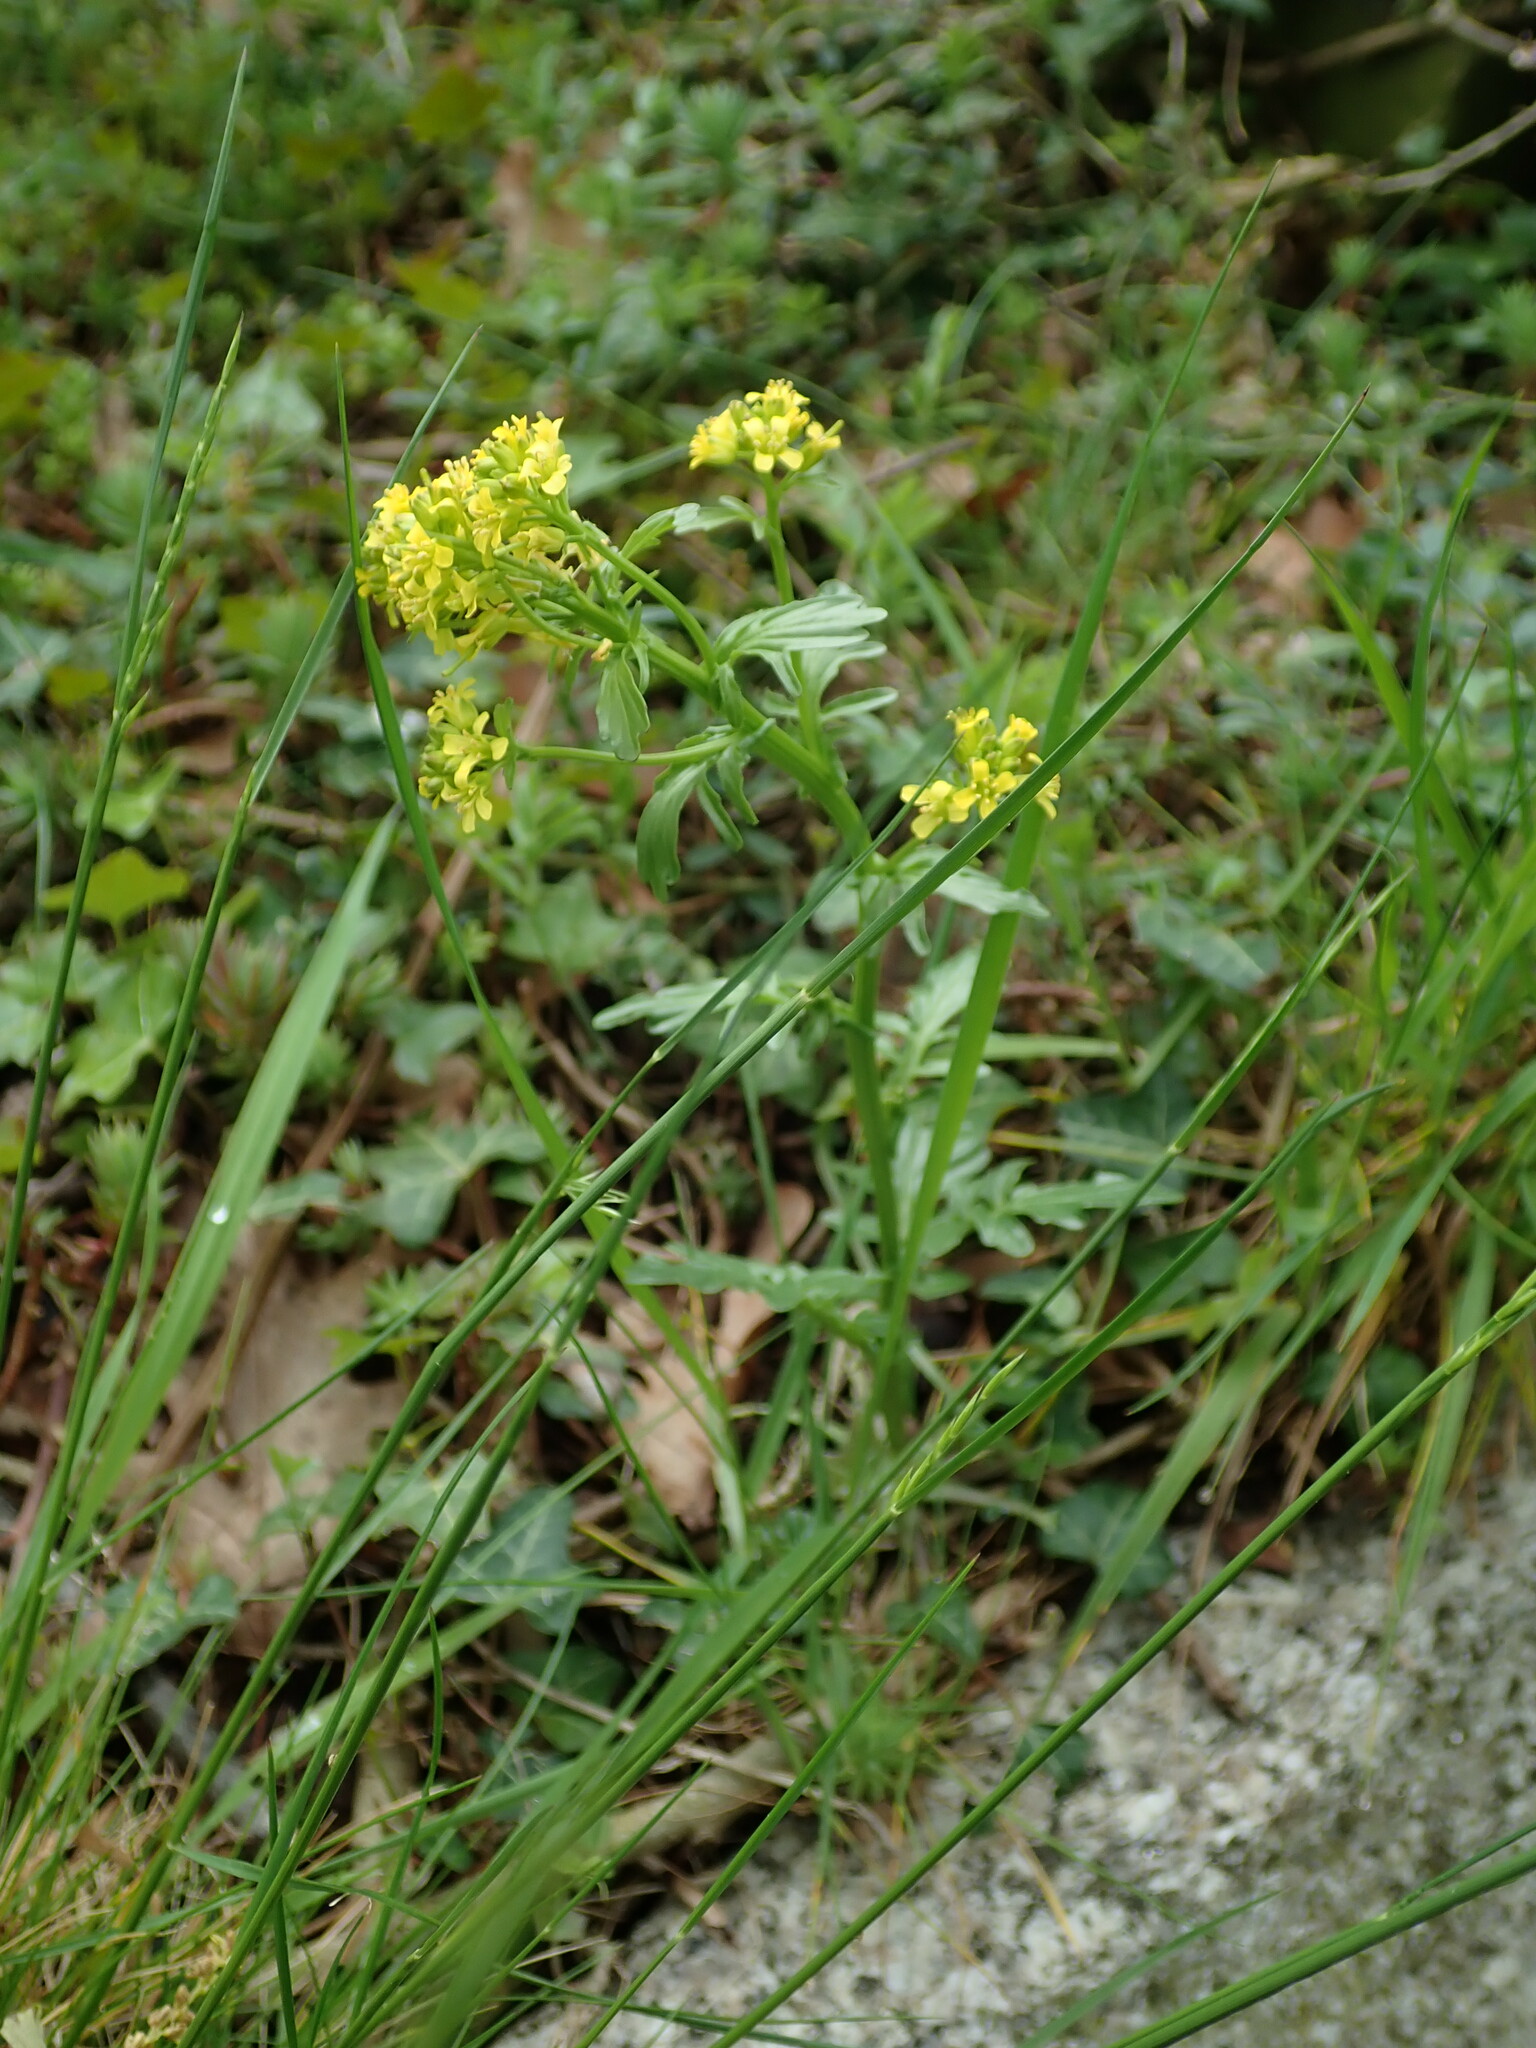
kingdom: Plantae
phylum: Tracheophyta
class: Magnoliopsida
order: Brassicales
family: Brassicaceae
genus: Barbarea
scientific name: Barbarea vulgaris
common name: Cressy-greens
